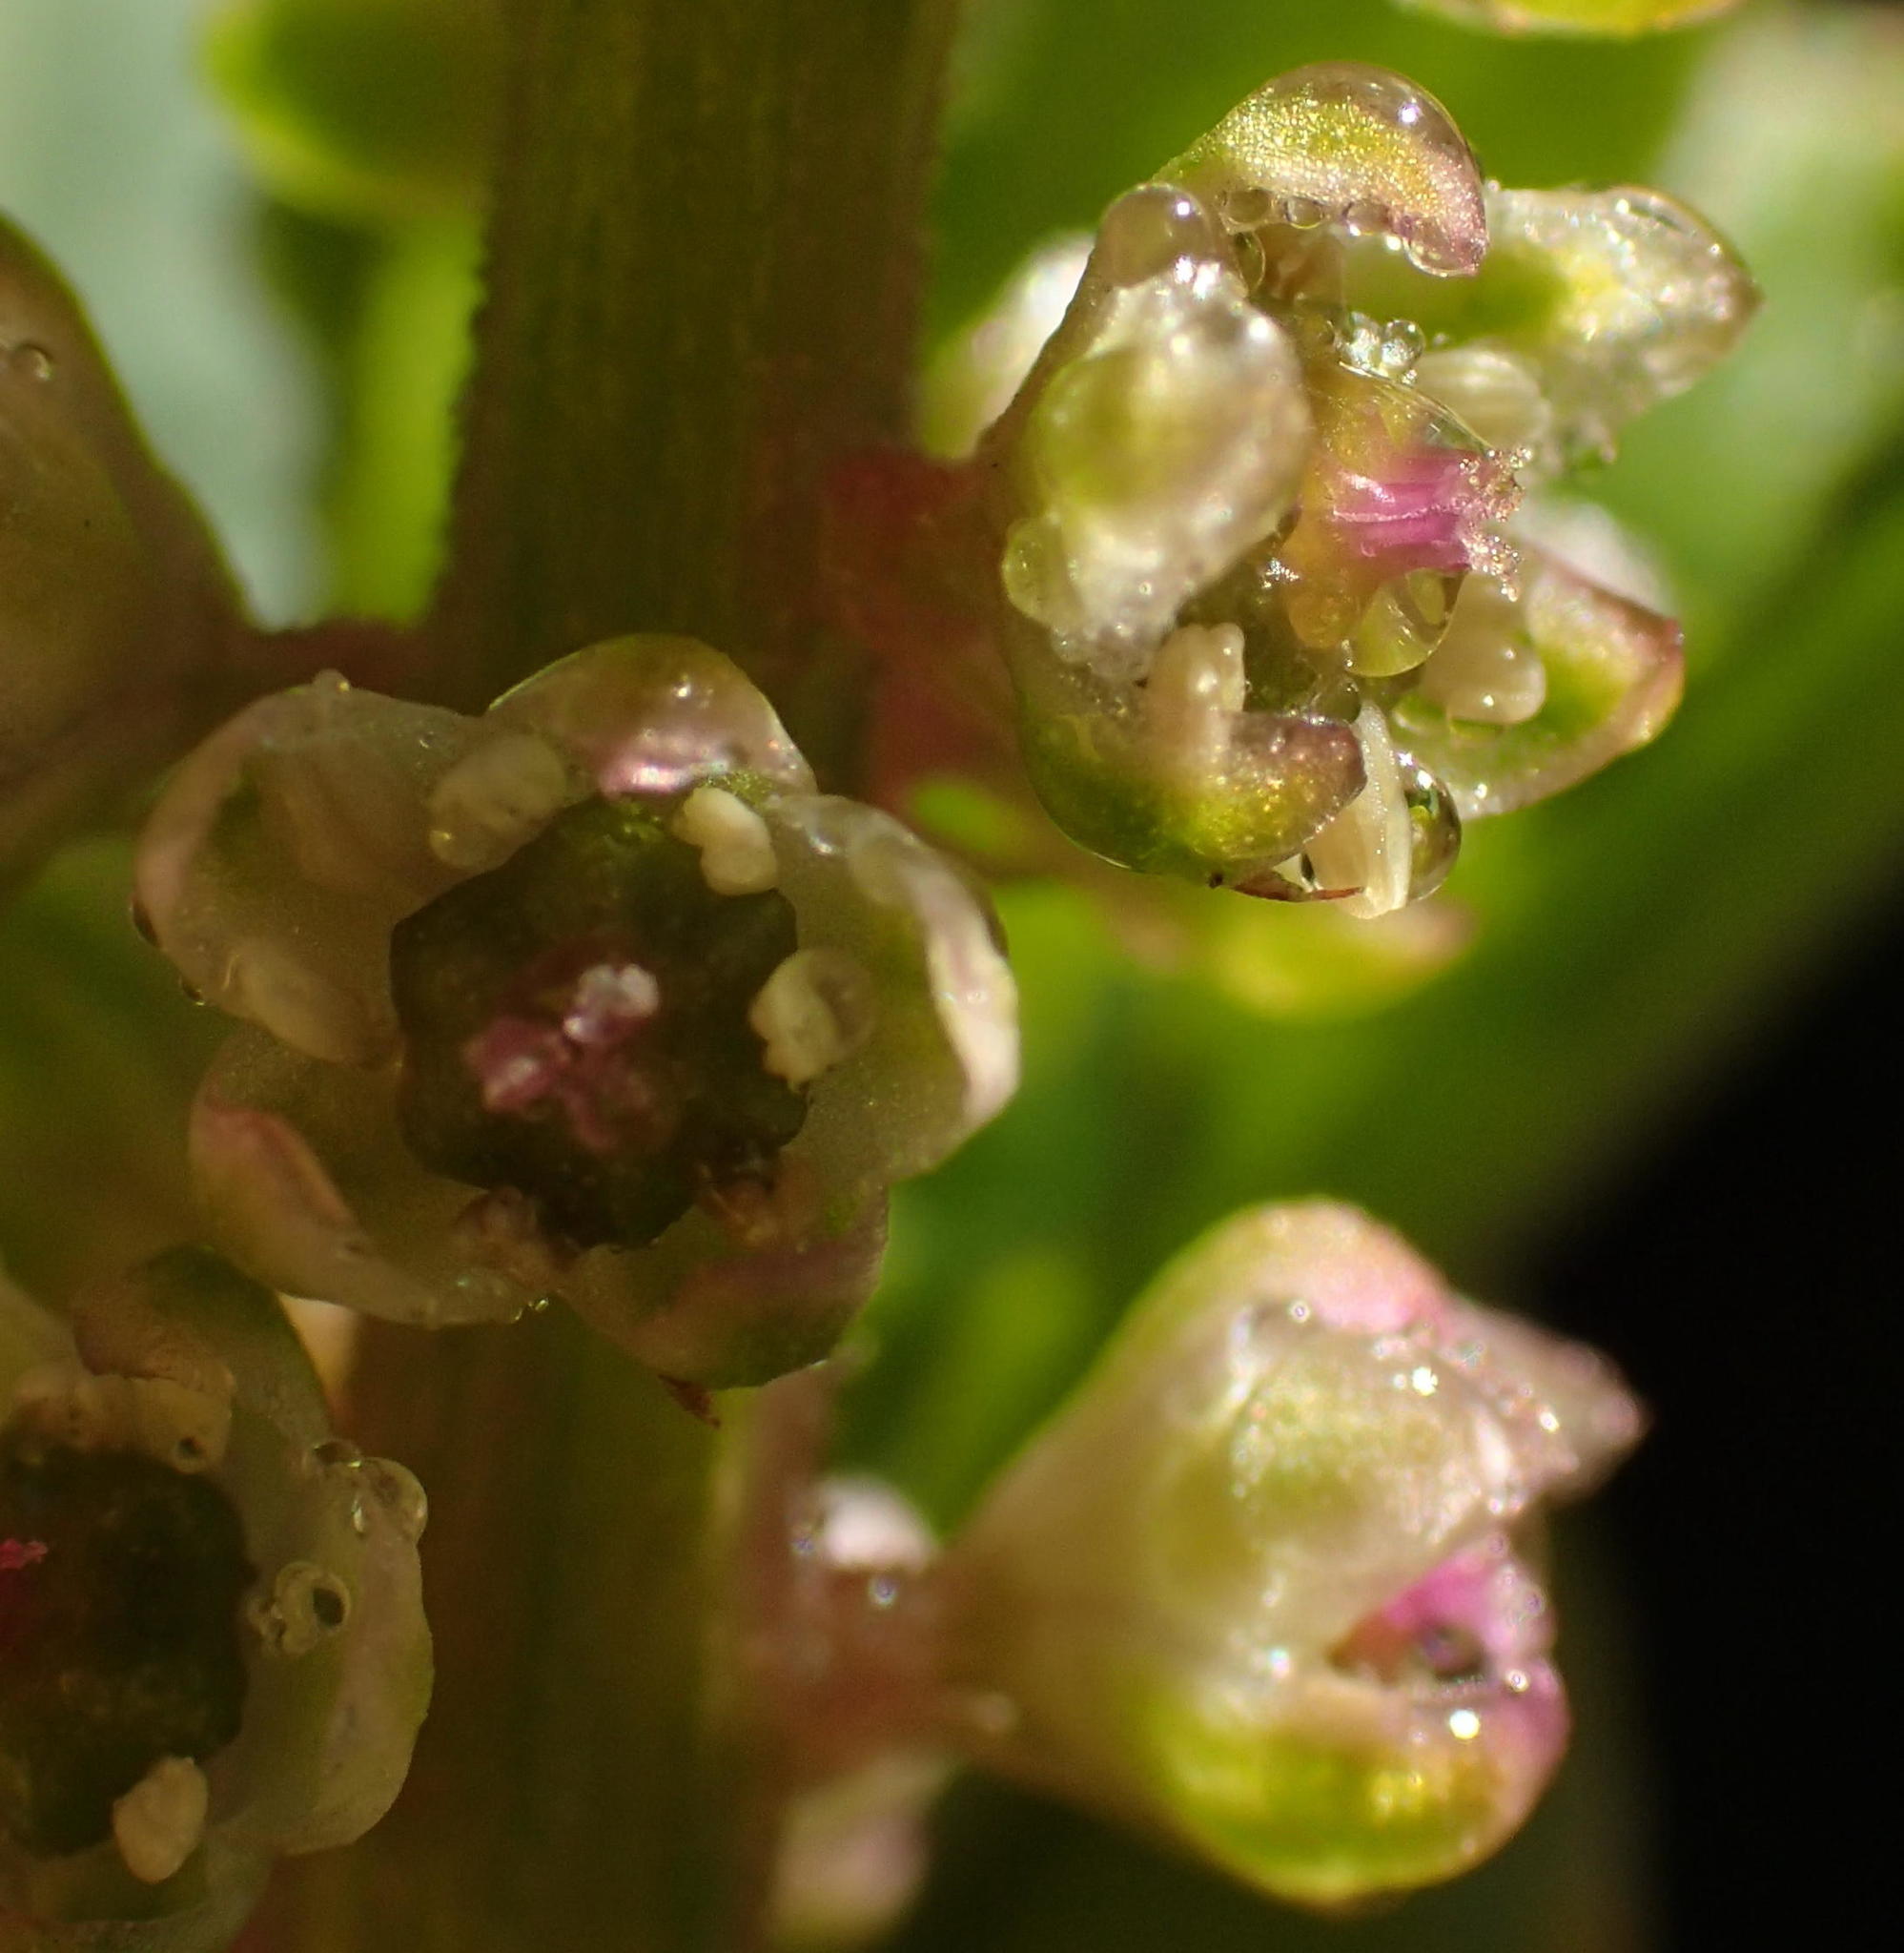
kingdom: Plantae
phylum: Tracheophyta
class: Magnoliopsida
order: Caryophyllales
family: Phytolaccaceae
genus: Phytolacca
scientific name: Phytolacca icosandra
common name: Button pokeweed
